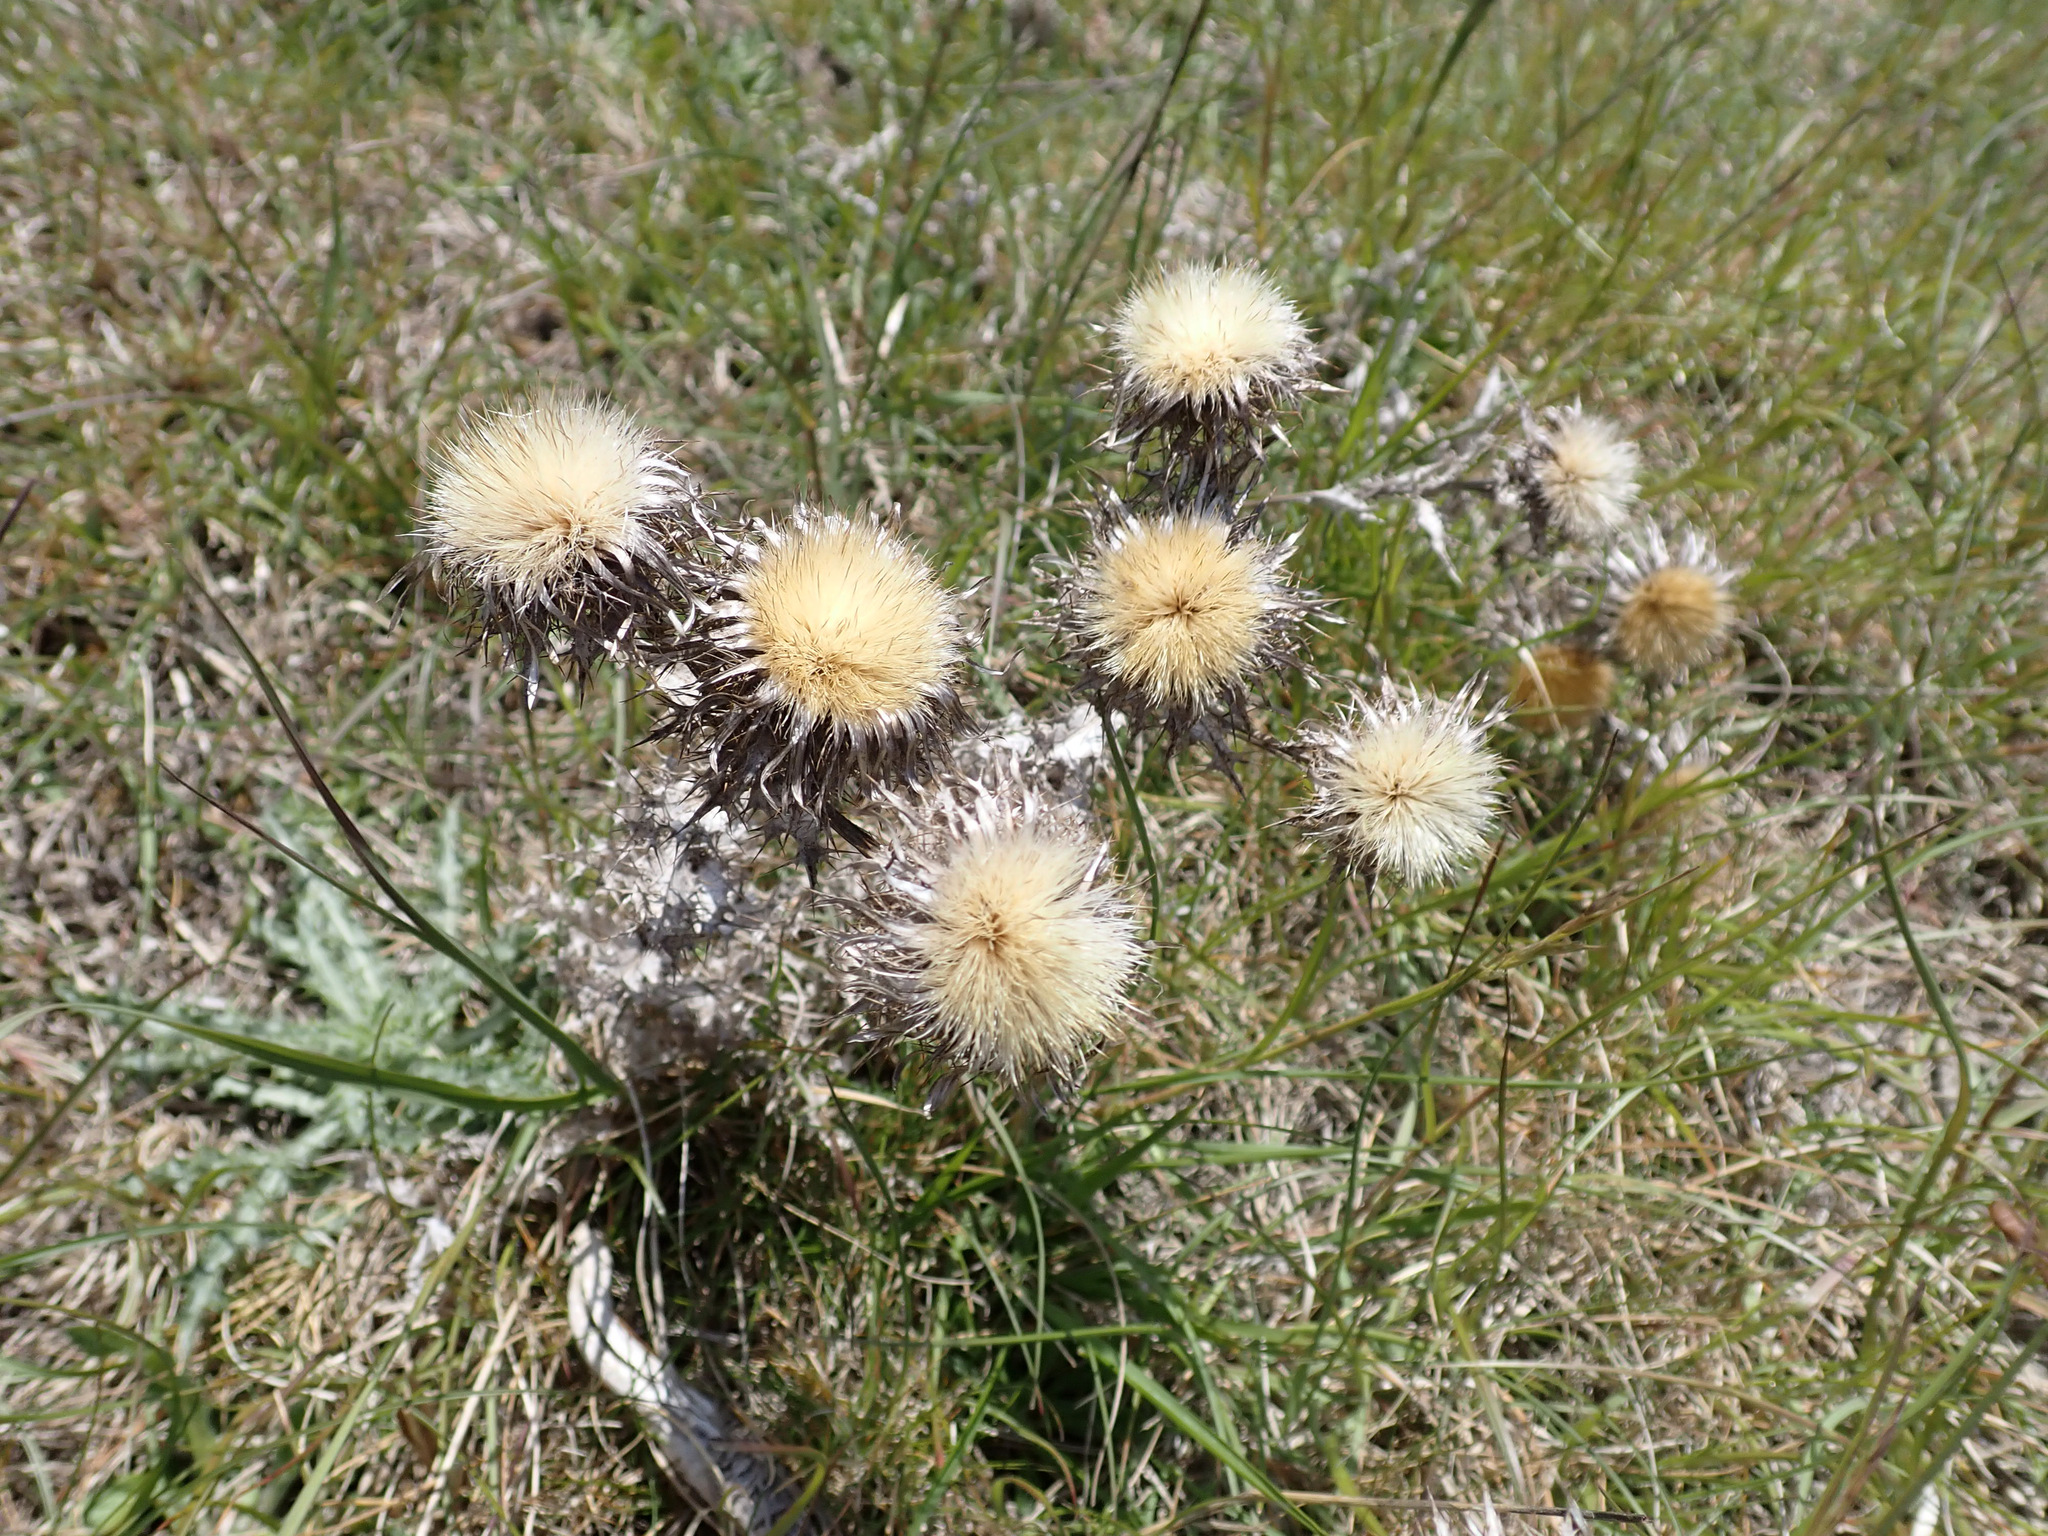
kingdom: Plantae
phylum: Tracheophyta
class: Magnoliopsida
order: Asterales
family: Asteraceae
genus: Carlina
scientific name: Carlina vulgaris
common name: Carline thistle
